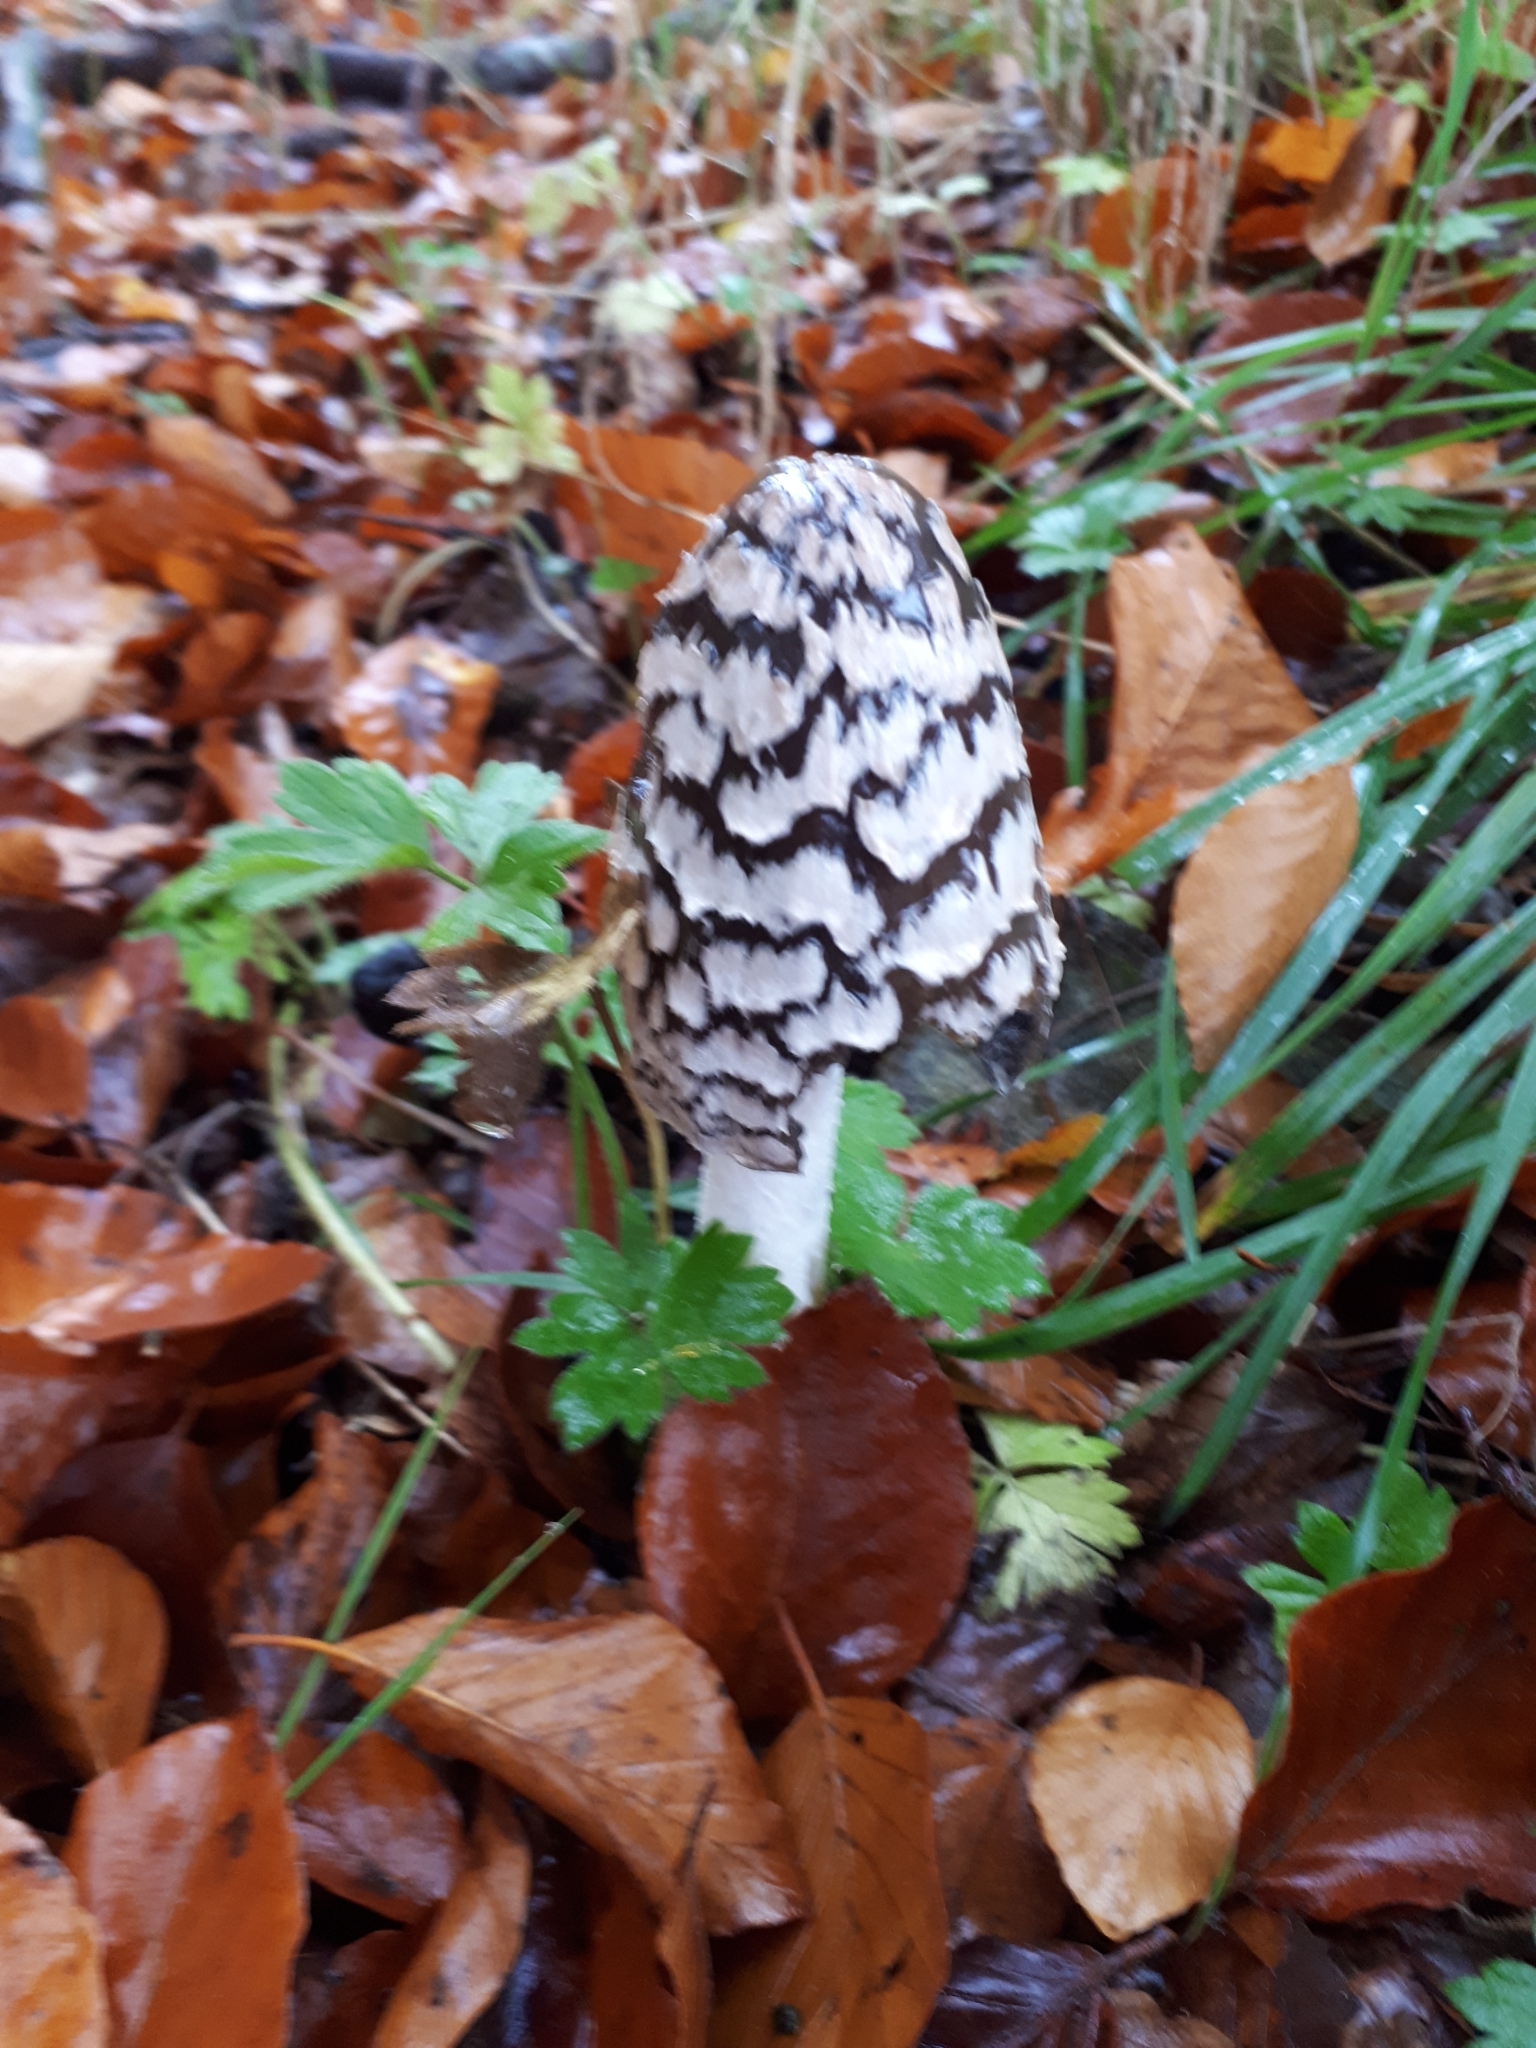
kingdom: Fungi
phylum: Basidiomycota
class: Agaricomycetes
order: Agaricales
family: Psathyrellaceae
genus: Coprinopsis
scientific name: Coprinopsis picacea
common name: Magpie inkcap
